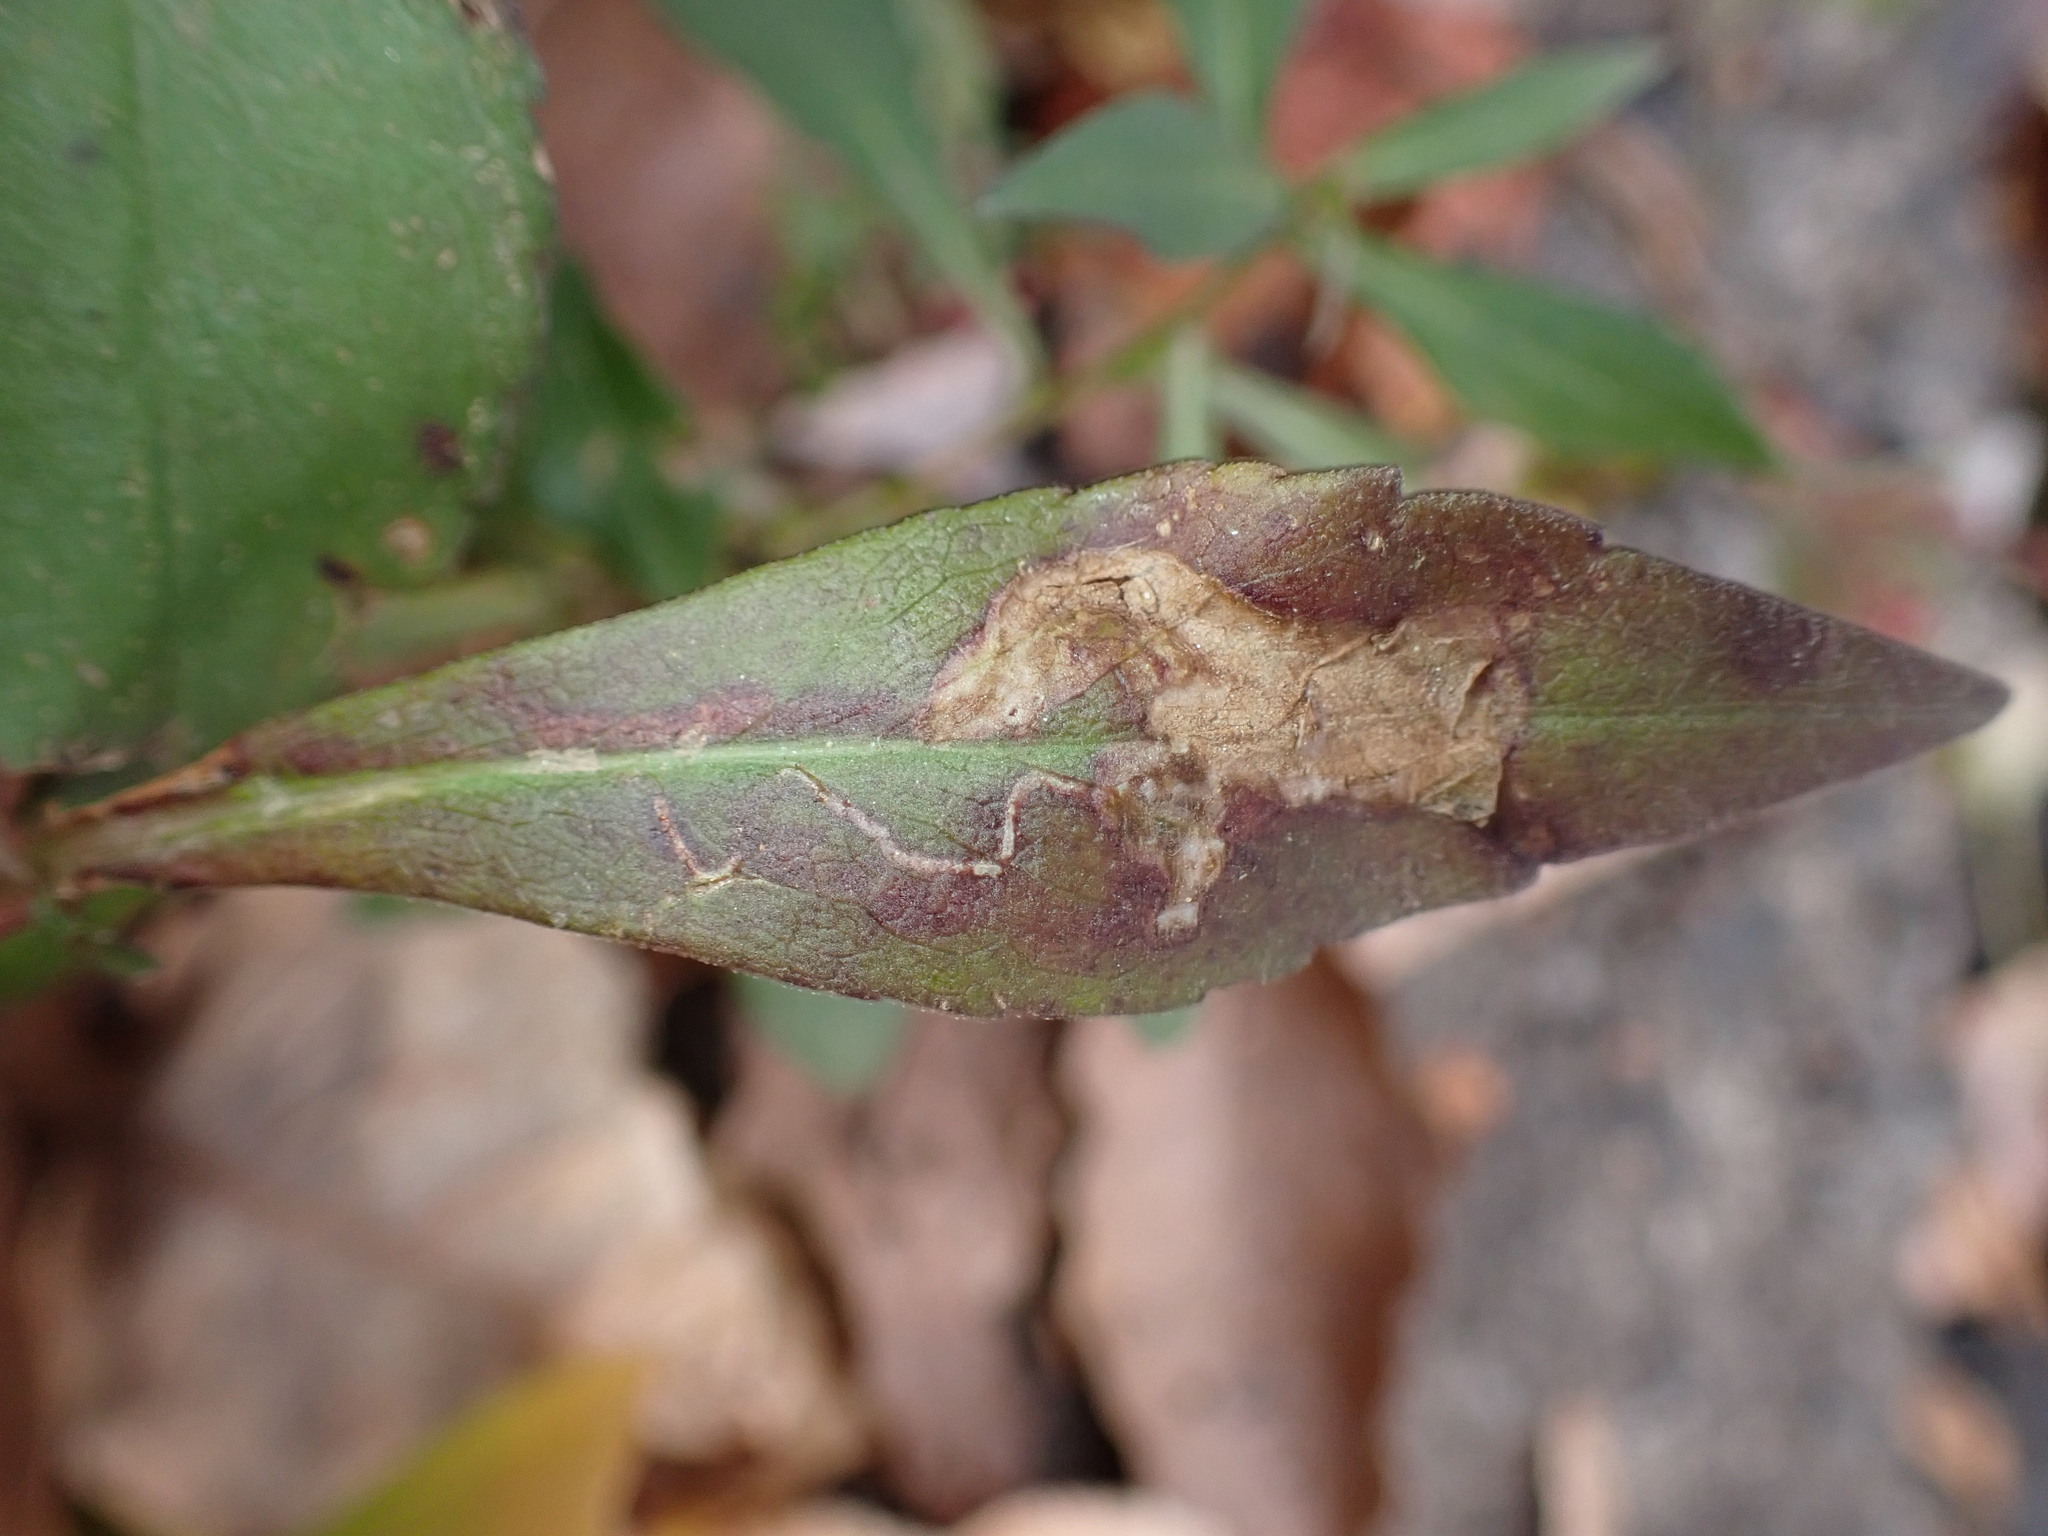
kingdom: Animalia
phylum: Arthropoda
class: Insecta
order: Diptera
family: Agromyzidae
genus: Ophiomyia
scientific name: Ophiomyia carolinensis
